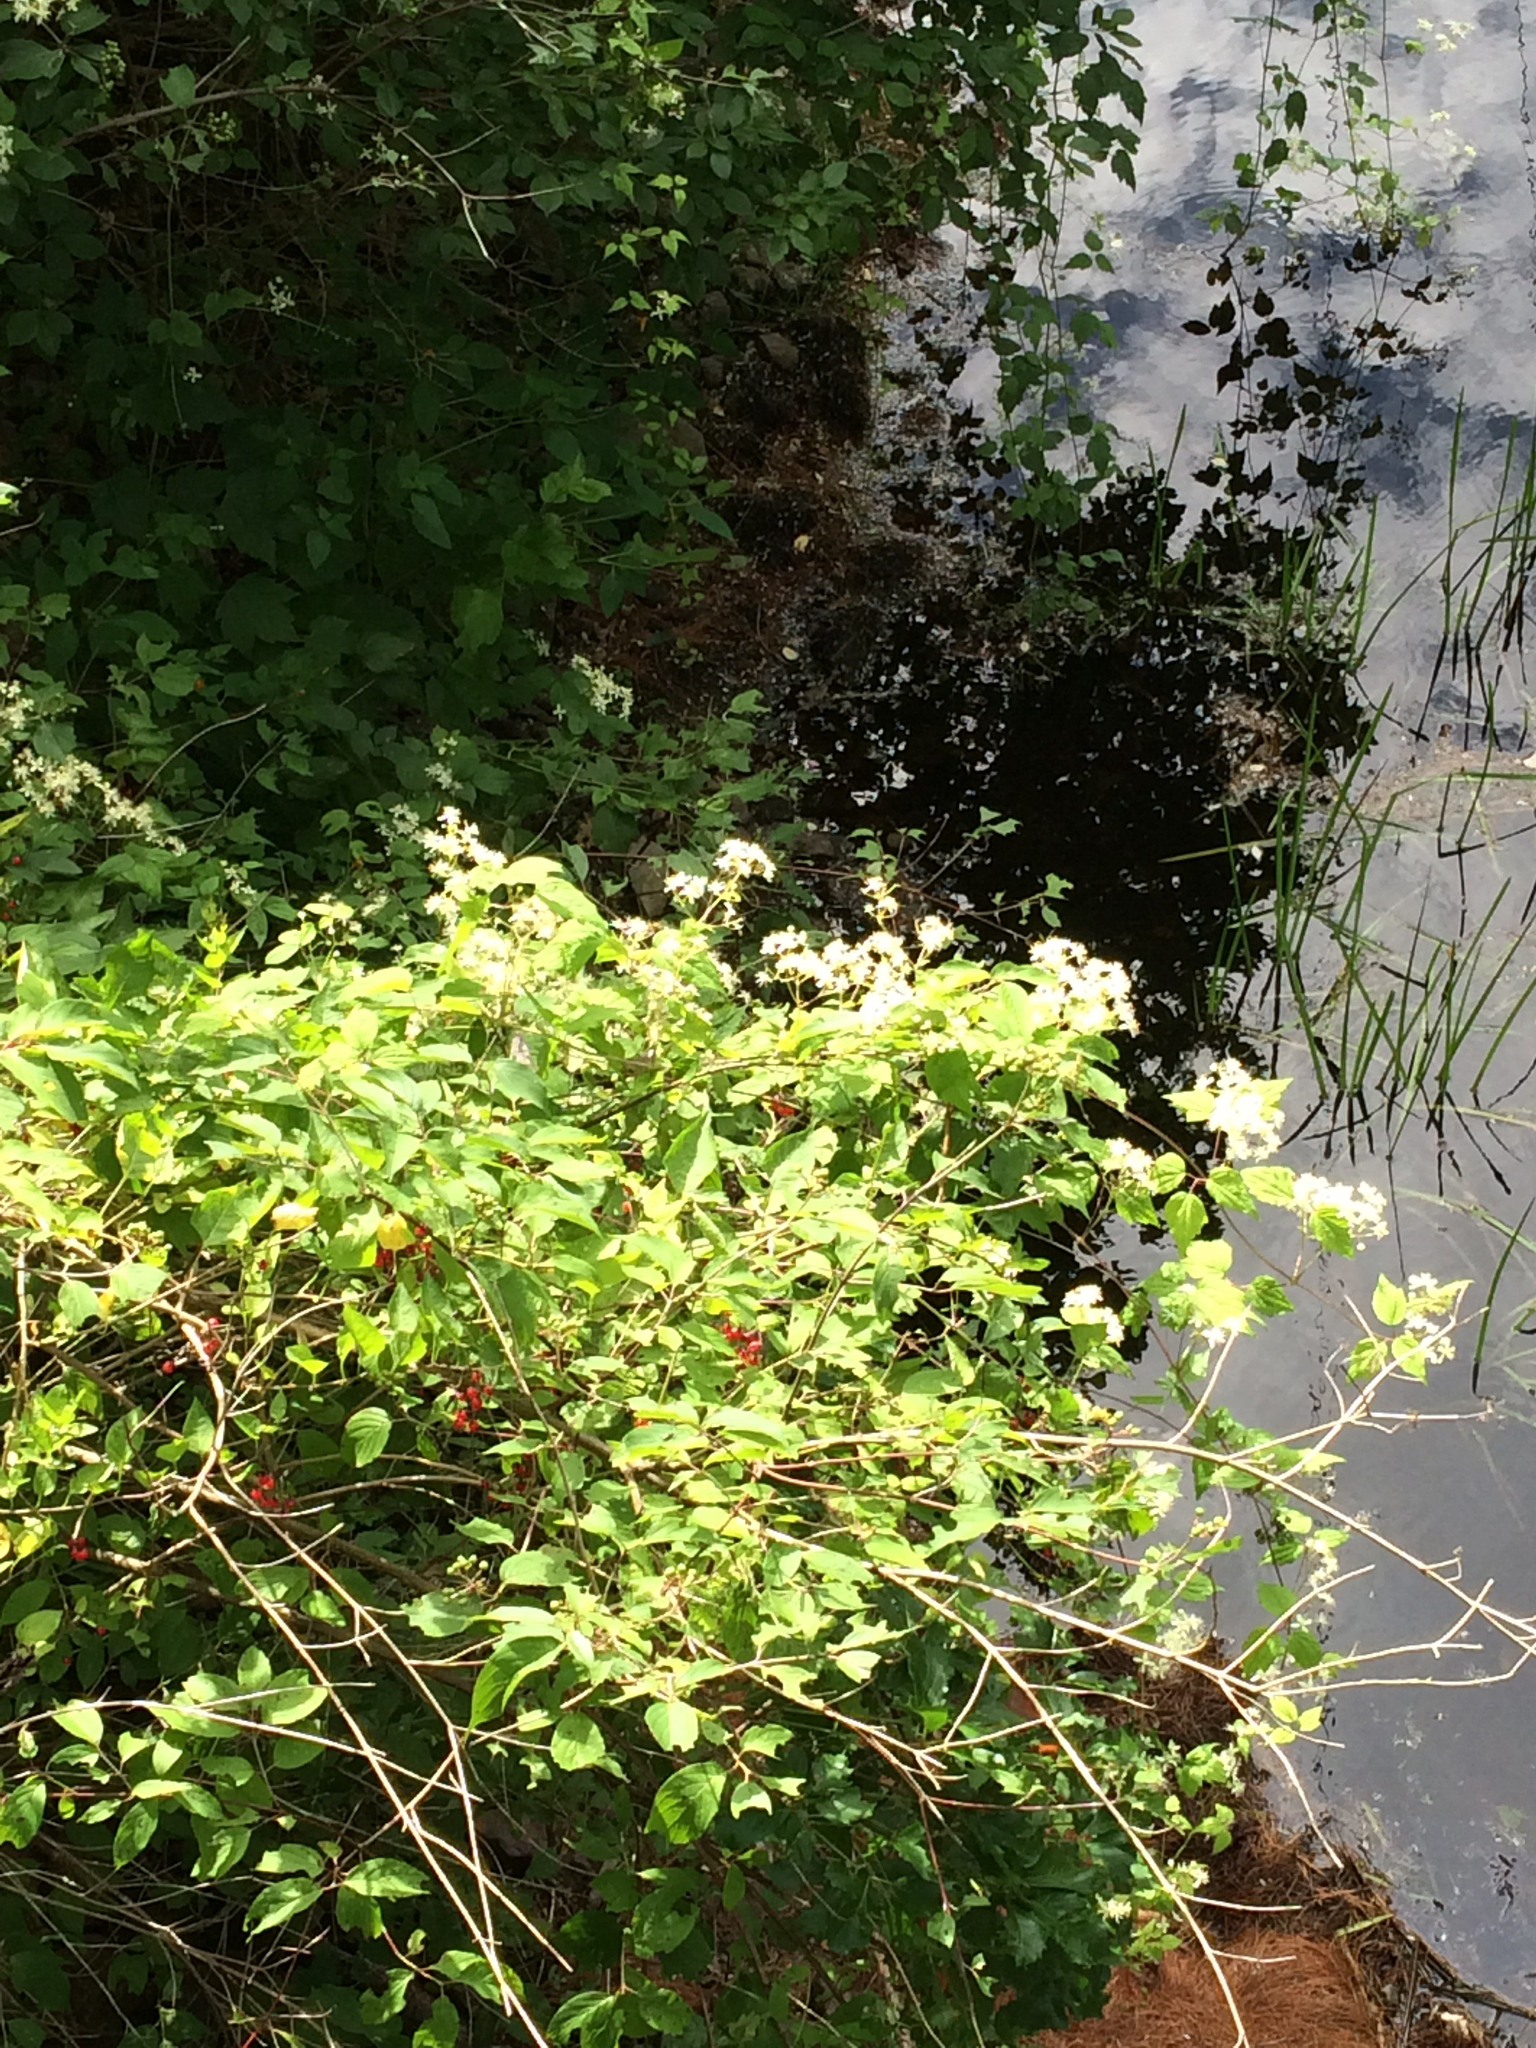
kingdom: Plantae
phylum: Tracheophyta
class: Magnoliopsida
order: Ranunculales
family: Ranunculaceae
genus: Clematis
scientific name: Clematis virginiana
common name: Virgin's-bower
